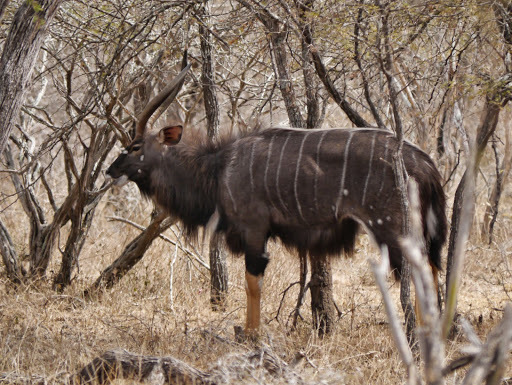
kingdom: Animalia
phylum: Chordata
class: Mammalia
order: Artiodactyla
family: Bovidae
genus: Tragelaphus
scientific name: Tragelaphus angasii
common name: Nyala
